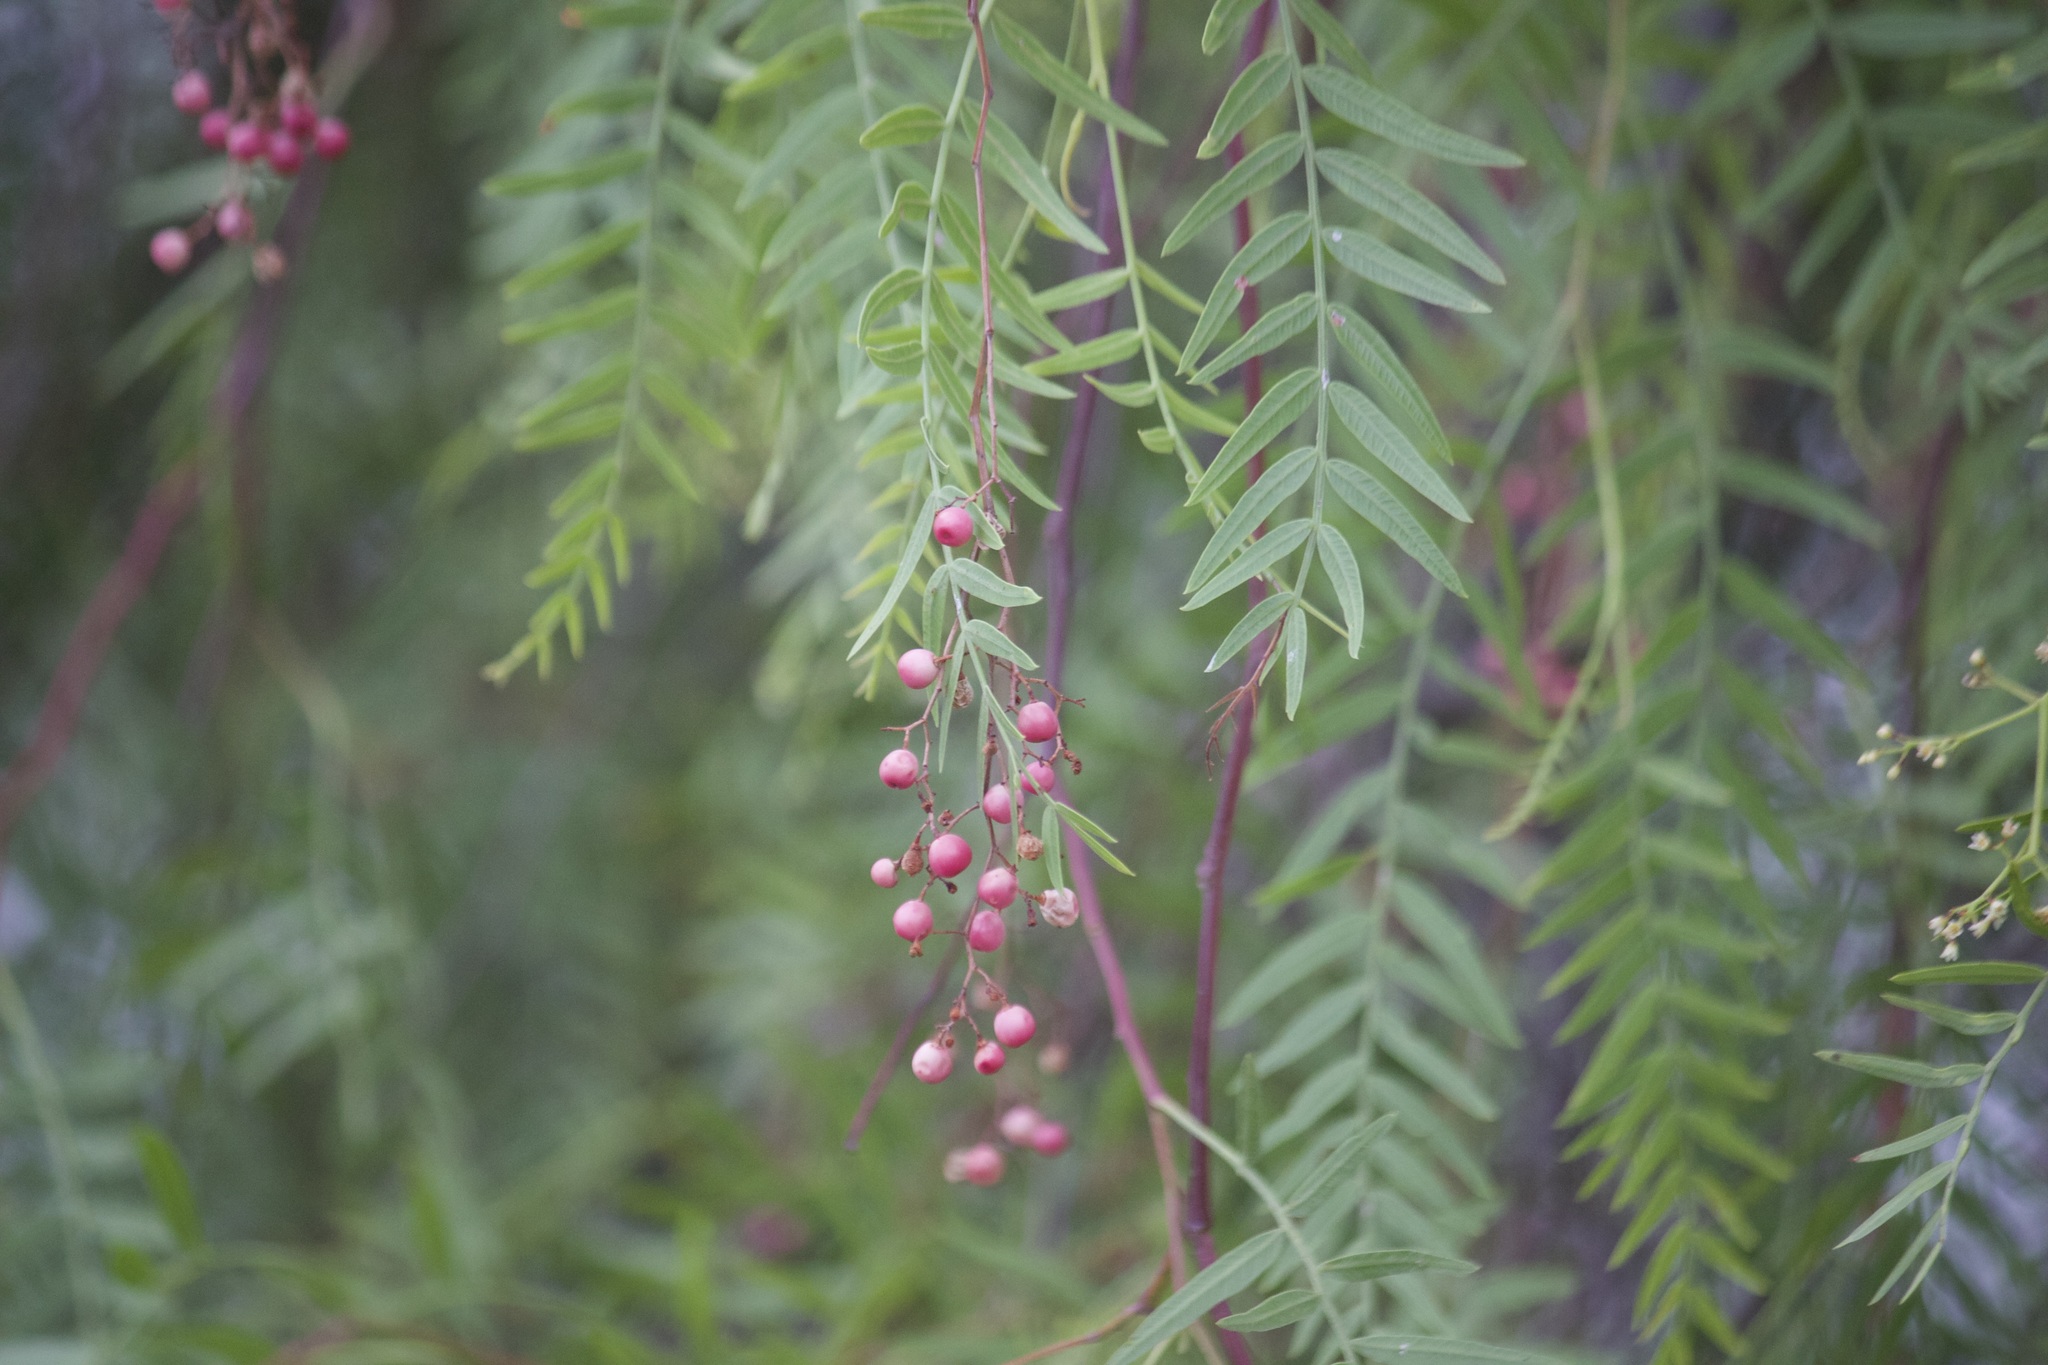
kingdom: Plantae
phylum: Tracheophyta
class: Magnoliopsida
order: Sapindales
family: Anacardiaceae
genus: Schinus
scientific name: Schinus molle
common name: Peruvian peppertree
